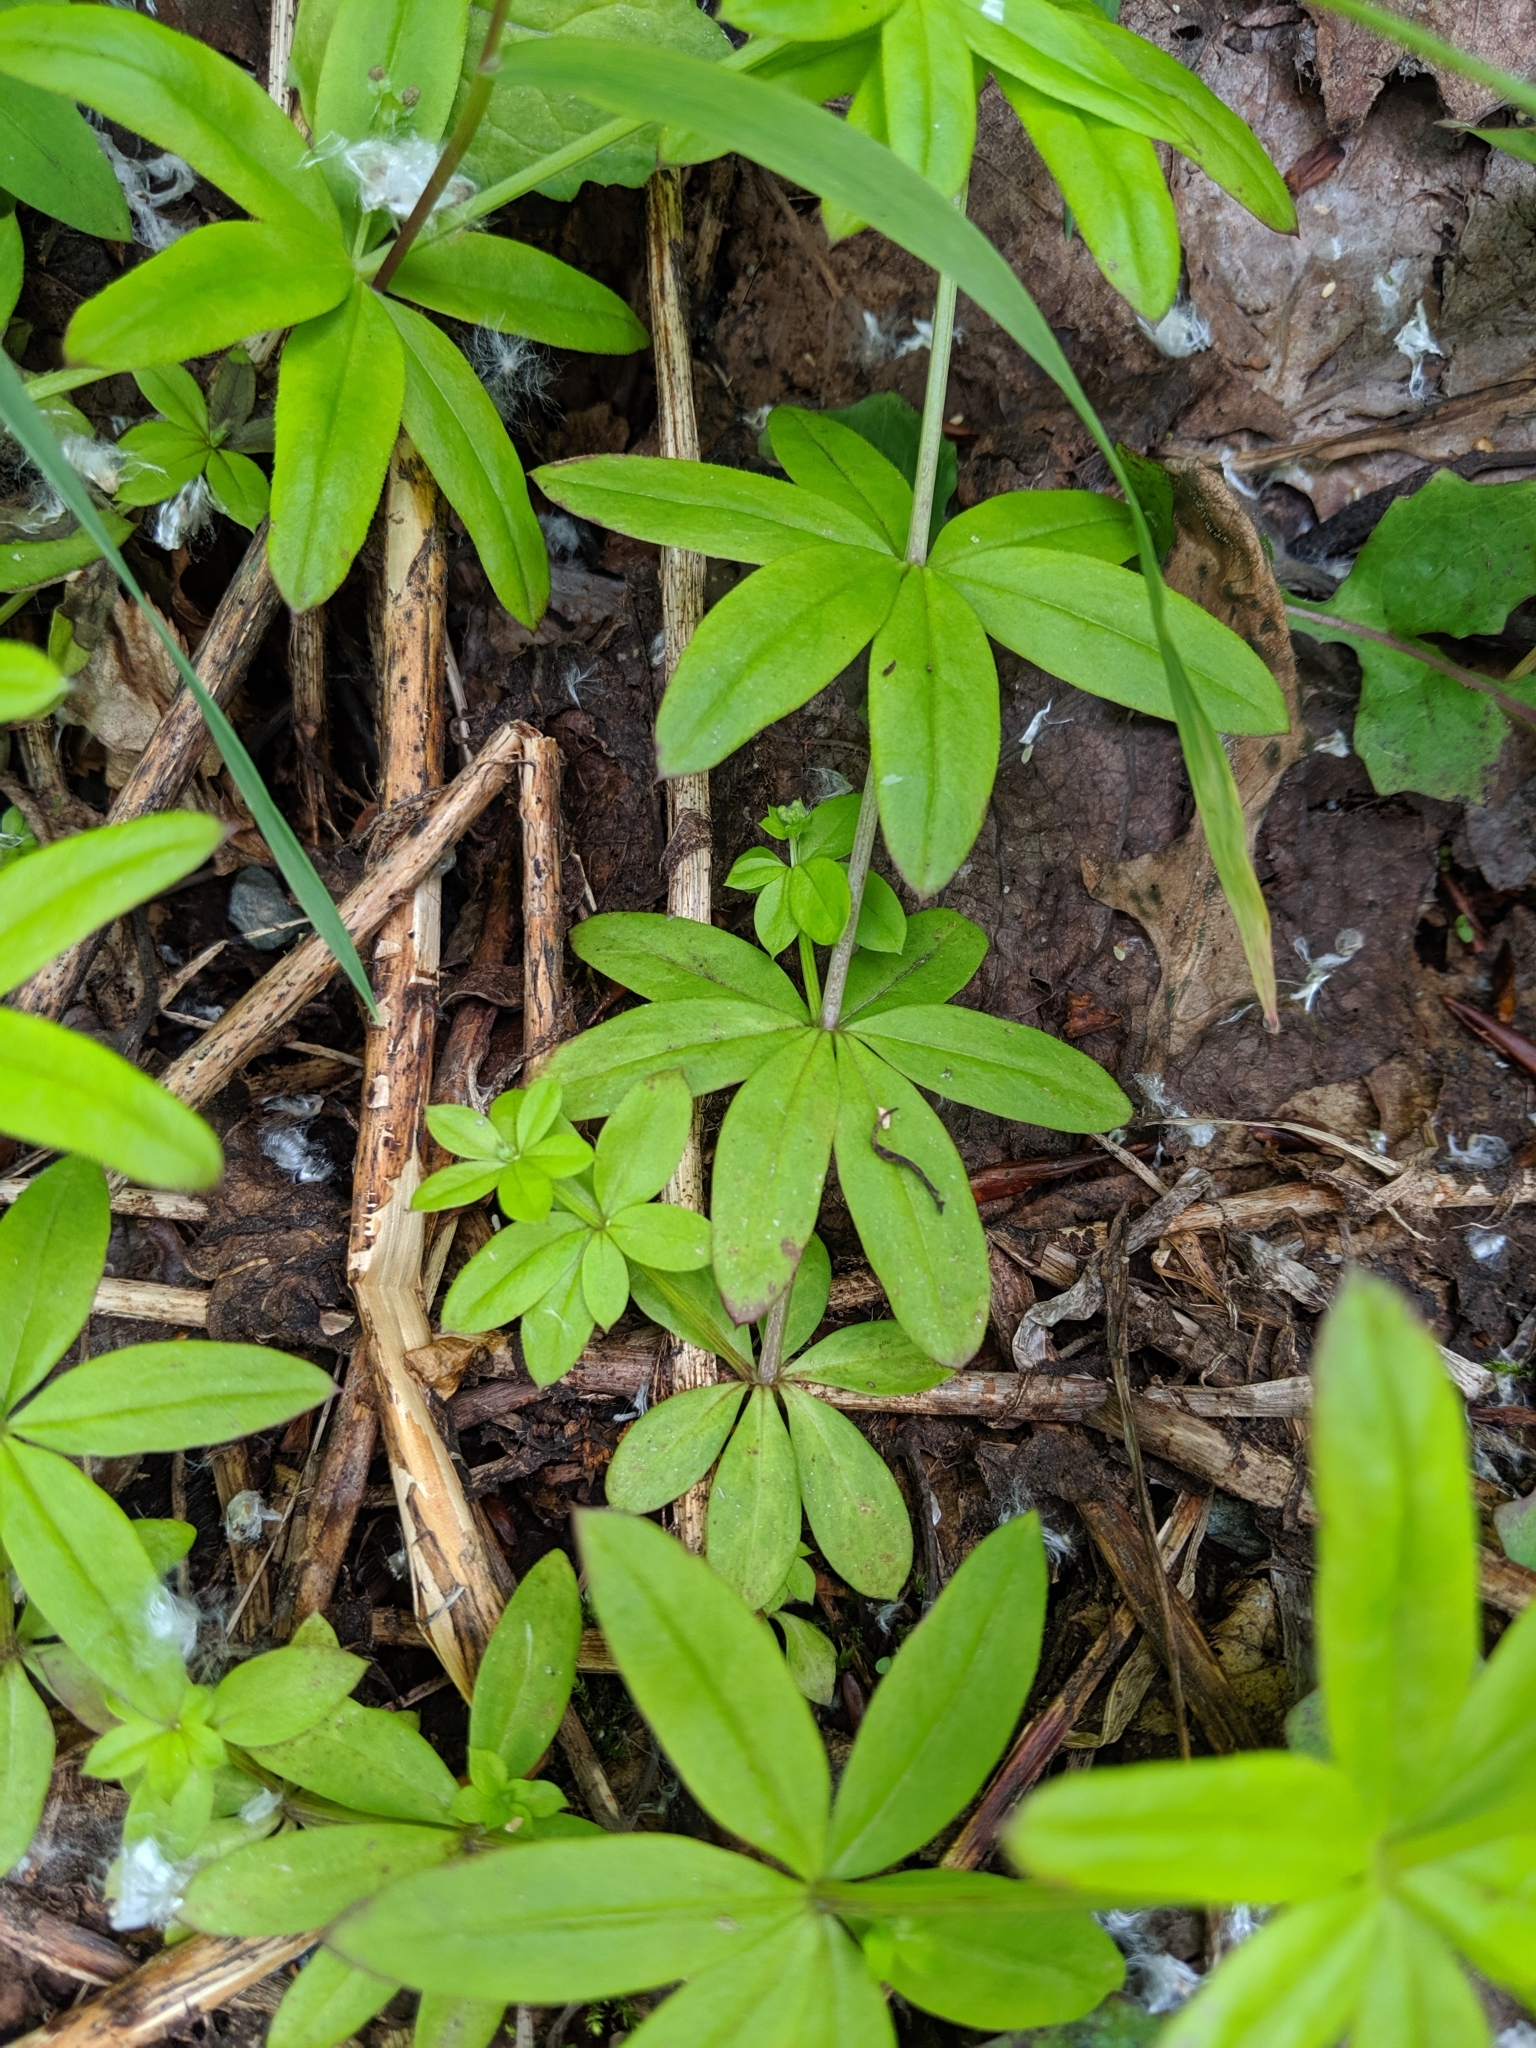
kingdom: Plantae
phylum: Tracheophyta
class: Magnoliopsida
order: Gentianales
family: Rubiaceae
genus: Galium
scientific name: Galium triflorum
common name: Fragrant bedstraw
